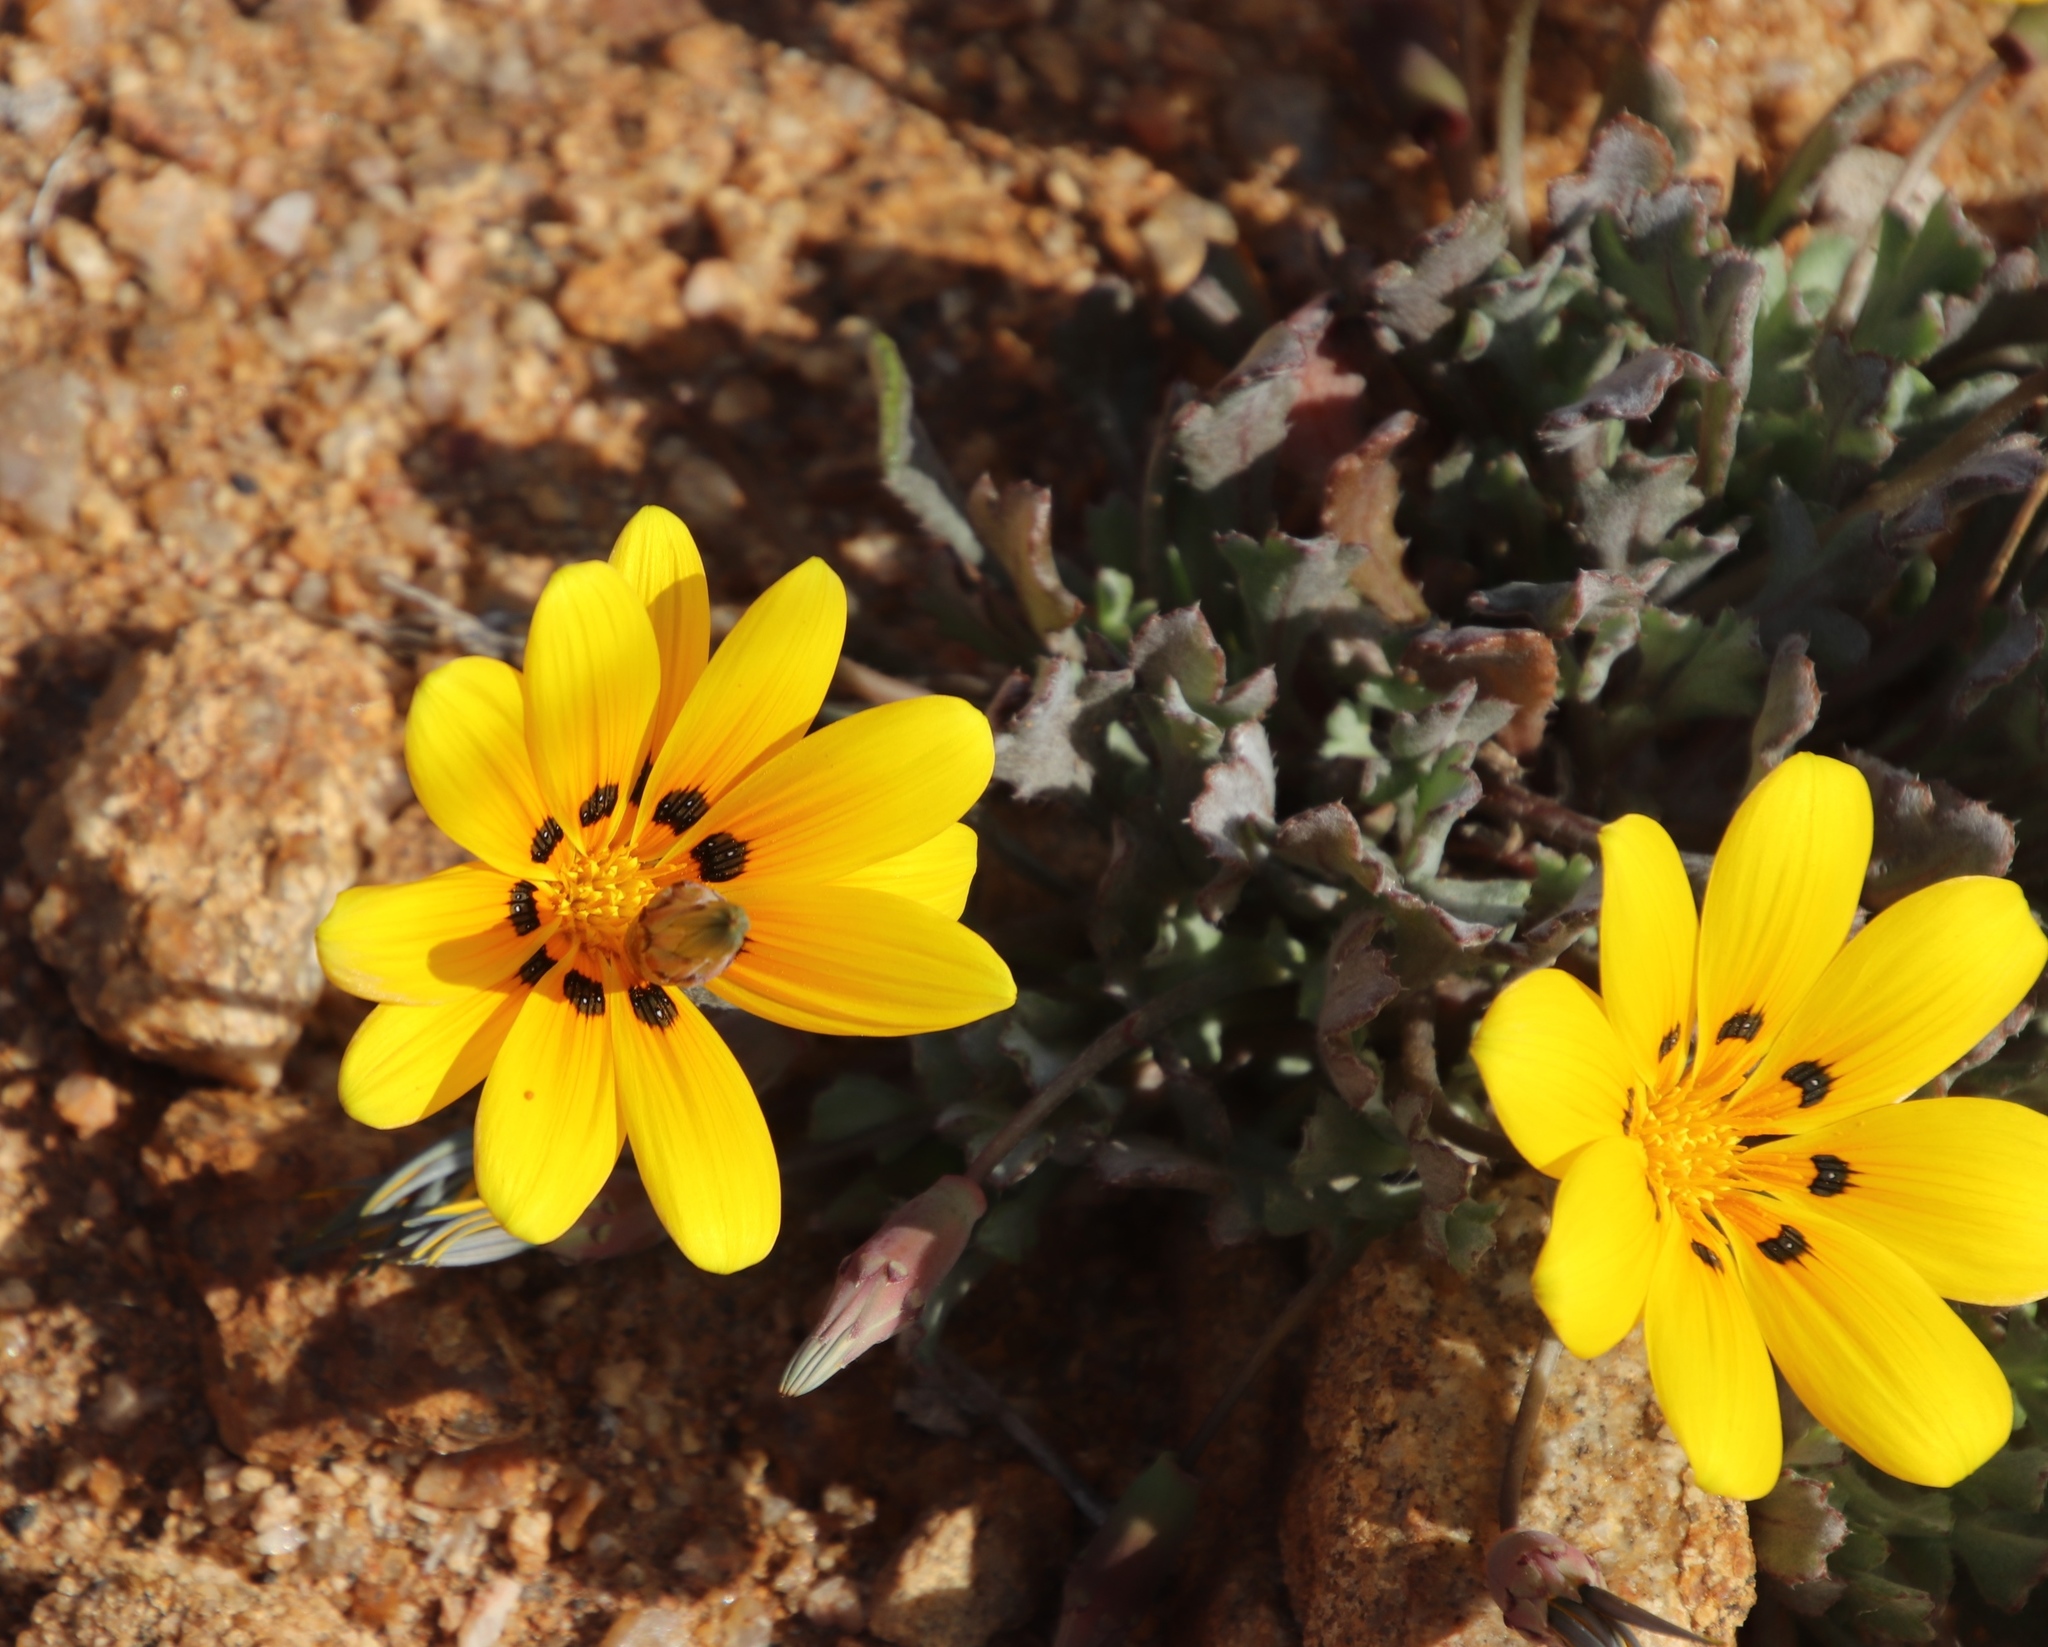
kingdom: Plantae
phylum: Tracheophyta
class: Magnoliopsida
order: Asterales
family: Asteraceae
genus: Gazania
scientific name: Gazania lichtensteinii
